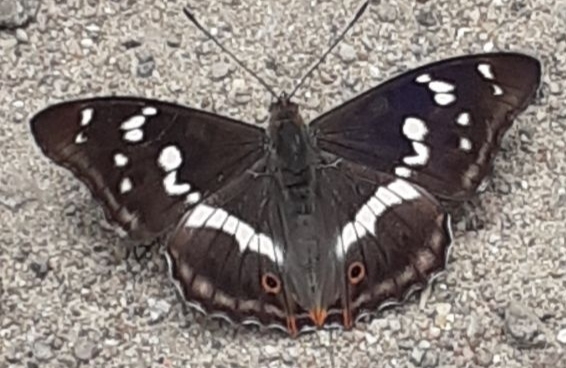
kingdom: Animalia
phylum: Arthropoda
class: Insecta
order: Lepidoptera
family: Nymphalidae
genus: Apatura
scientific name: Apatura iris
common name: Purple emperor
